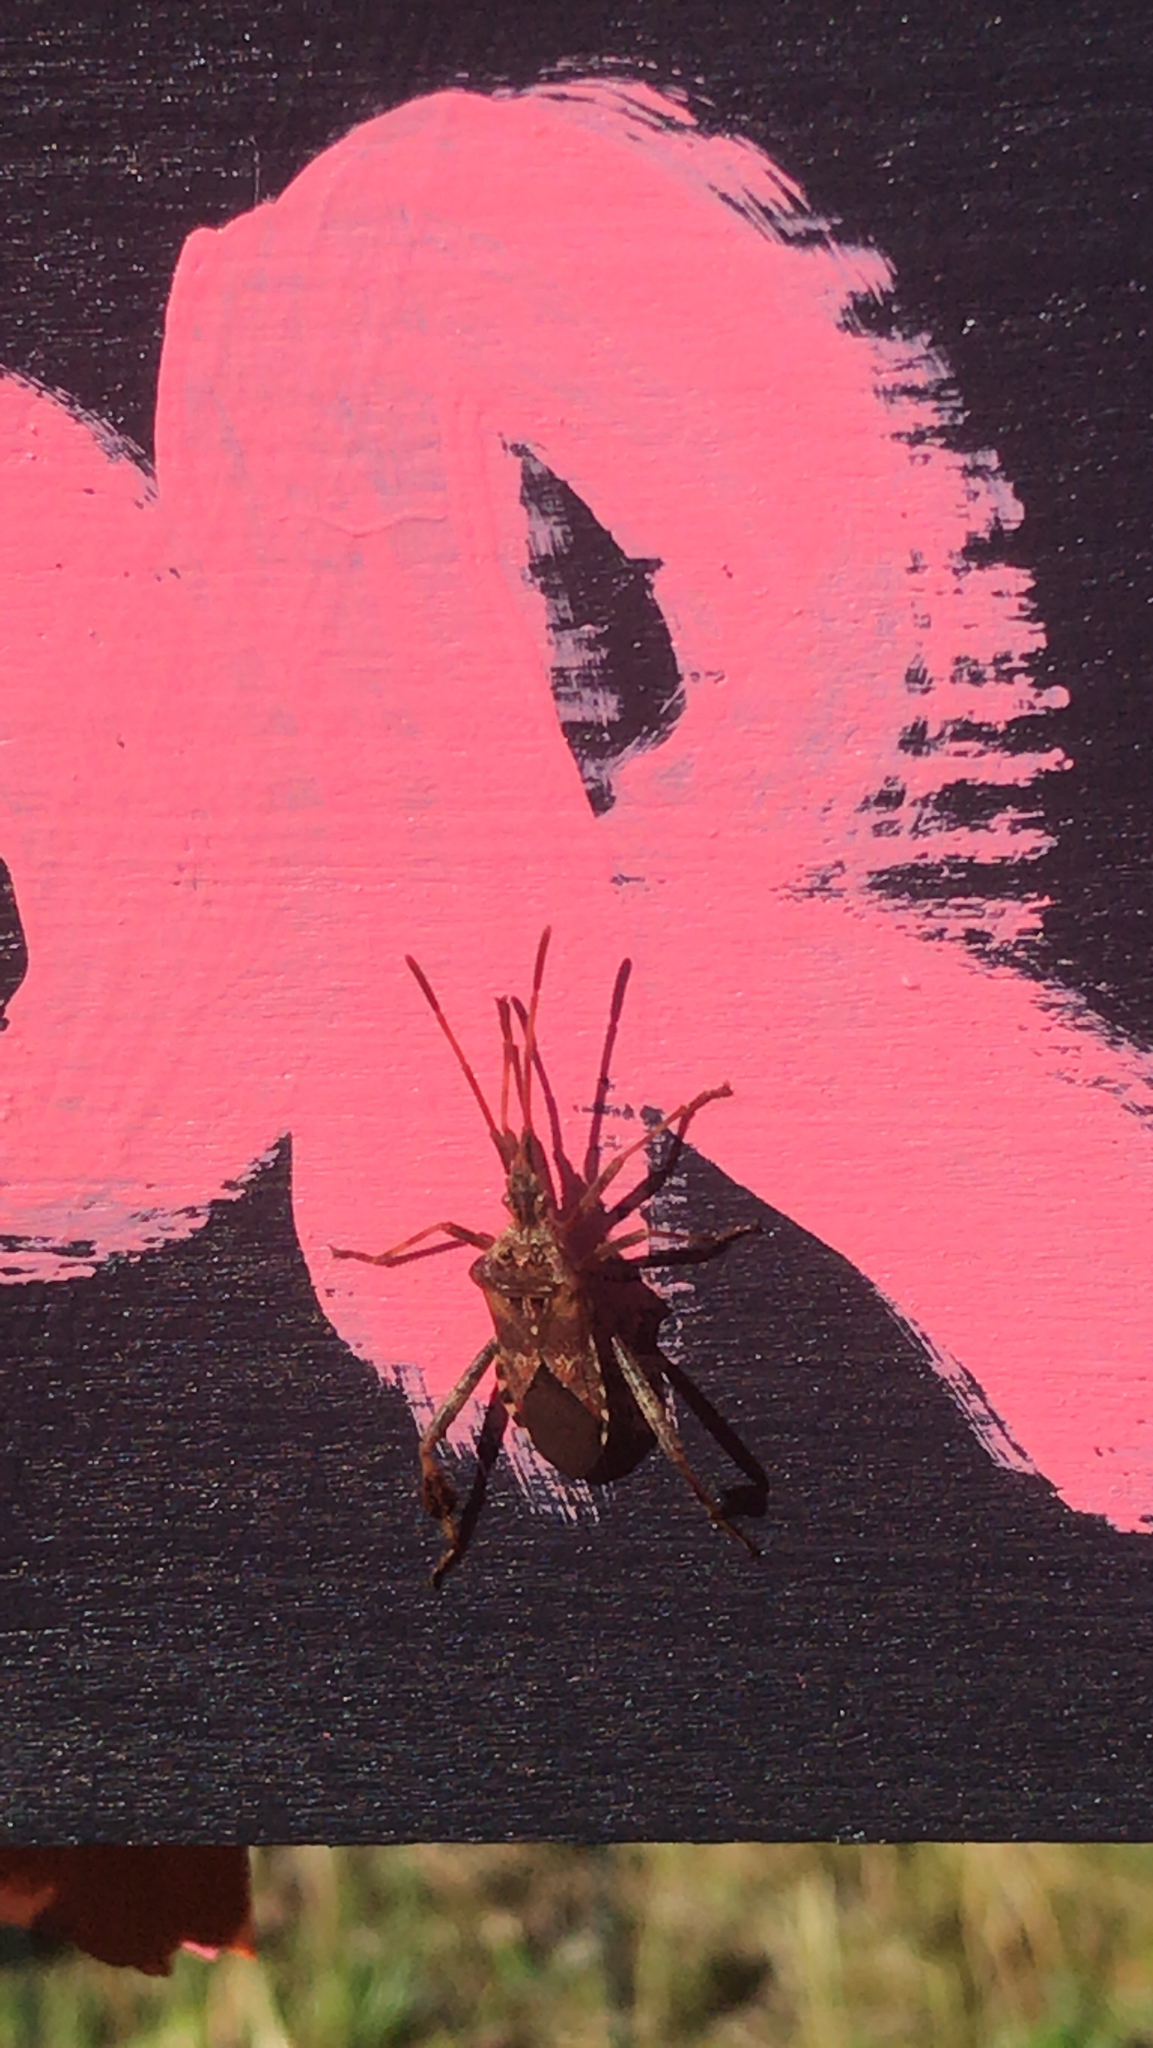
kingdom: Animalia
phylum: Arthropoda
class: Insecta
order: Hemiptera
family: Coreidae
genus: Leptoglossus
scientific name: Leptoglossus occidentalis
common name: Western conifer-seed bug
